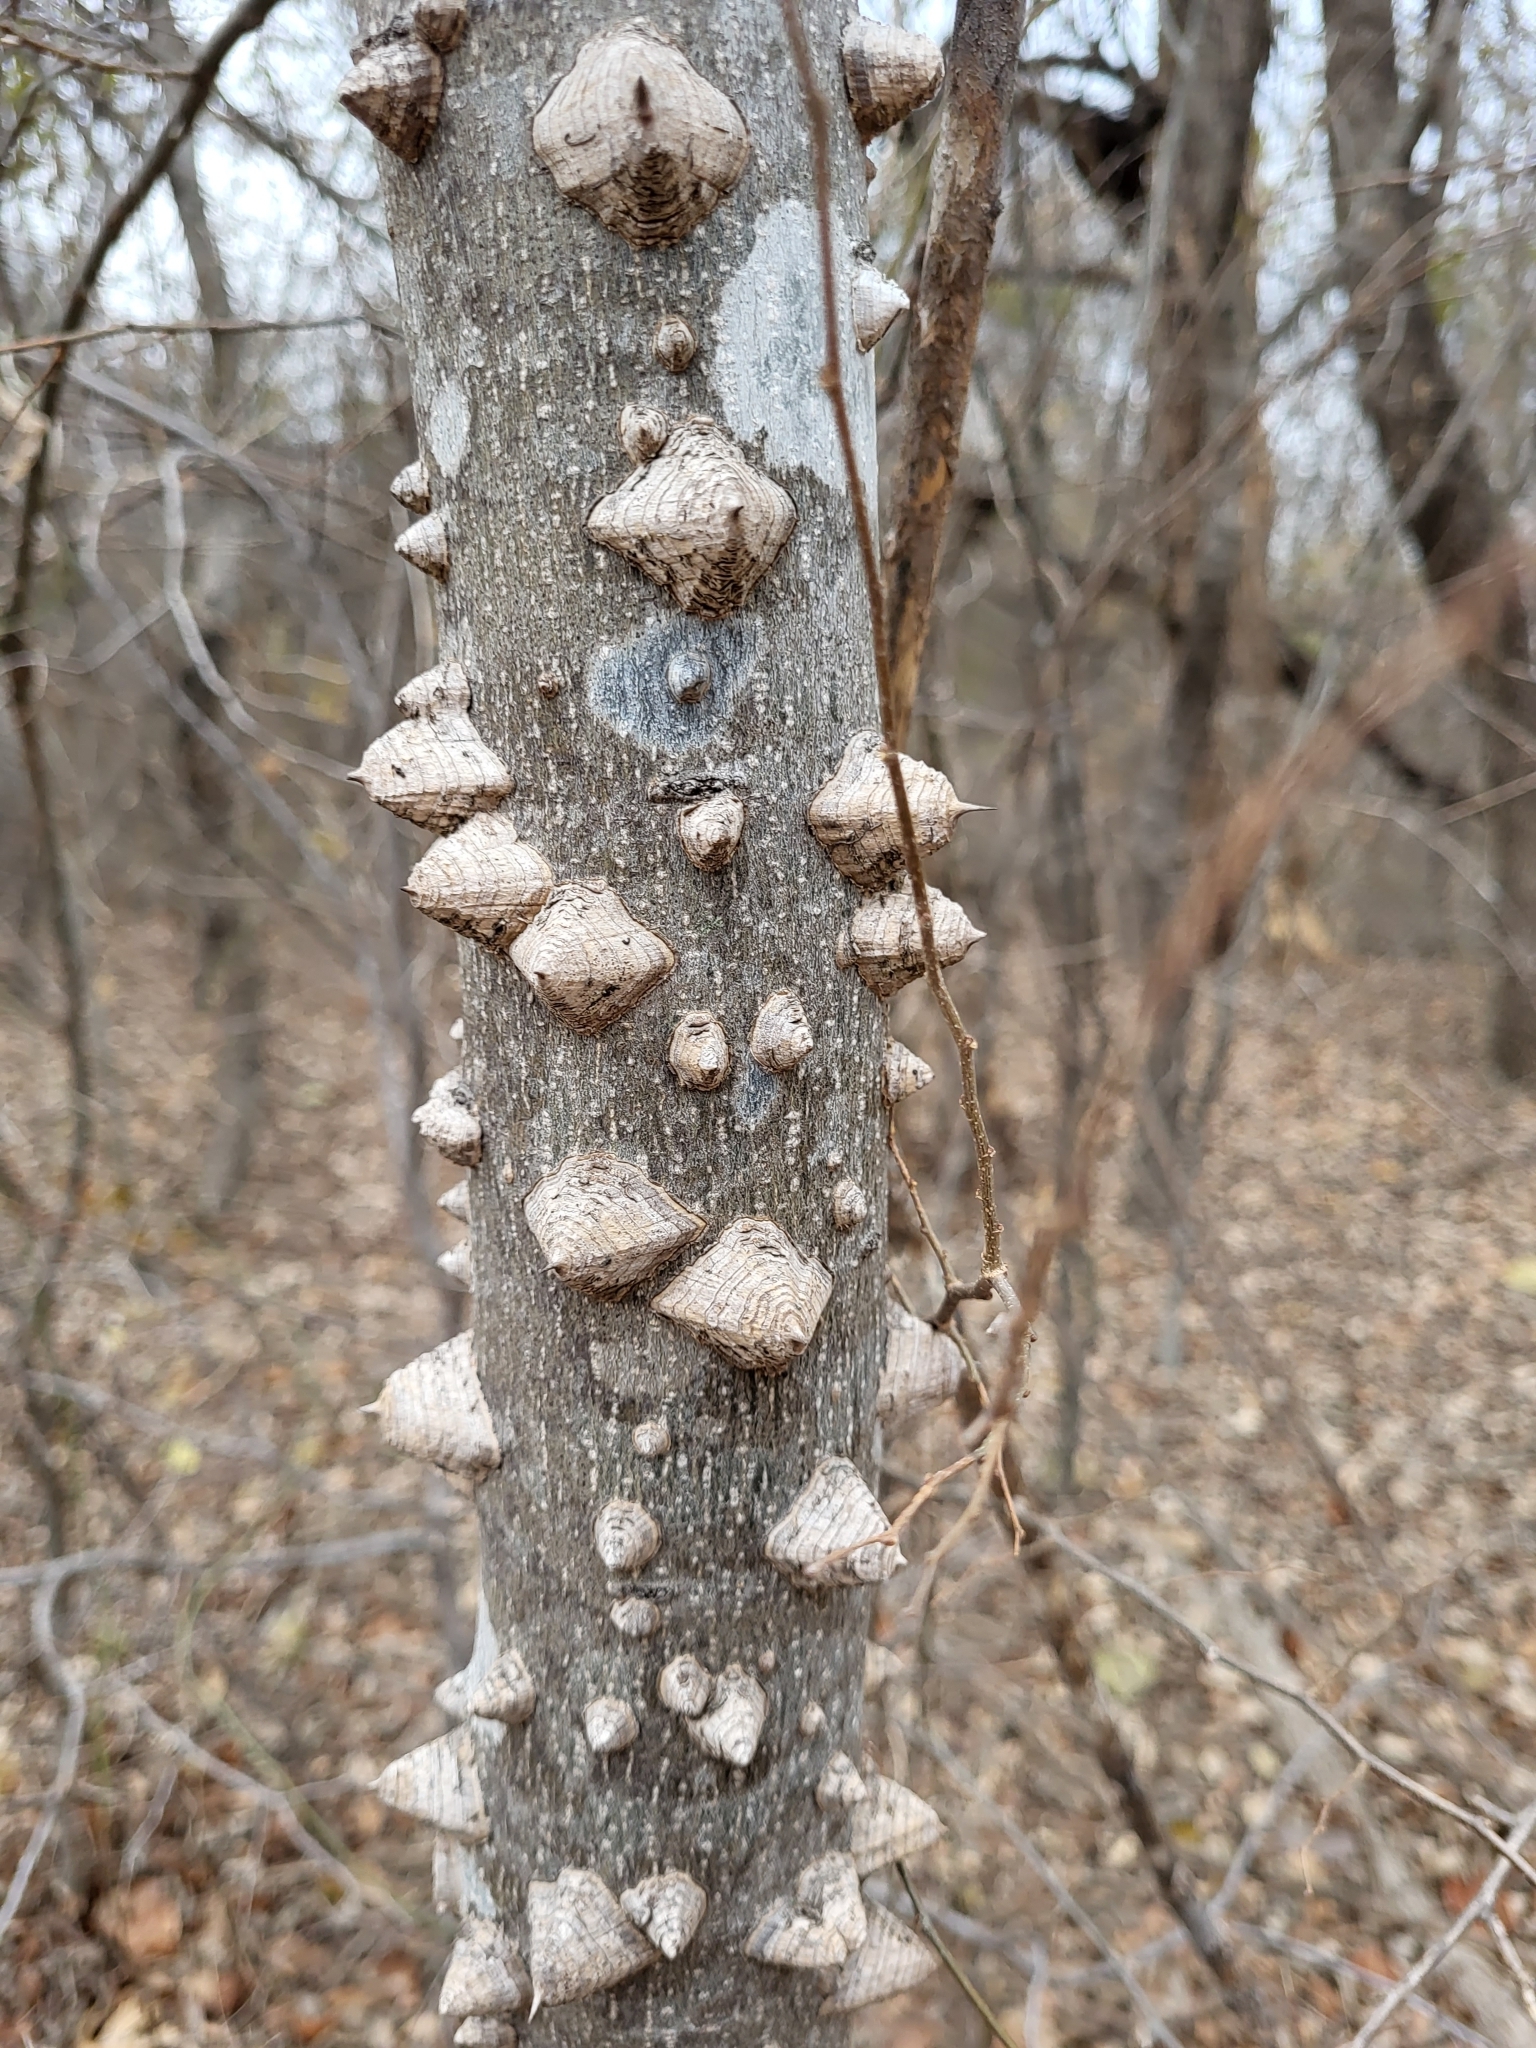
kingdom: Plantae
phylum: Tracheophyta
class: Magnoliopsida
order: Sapindales
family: Rutaceae
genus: Zanthoxylum
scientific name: Zanthoxylum clava-herculis
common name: Hercules'-club
